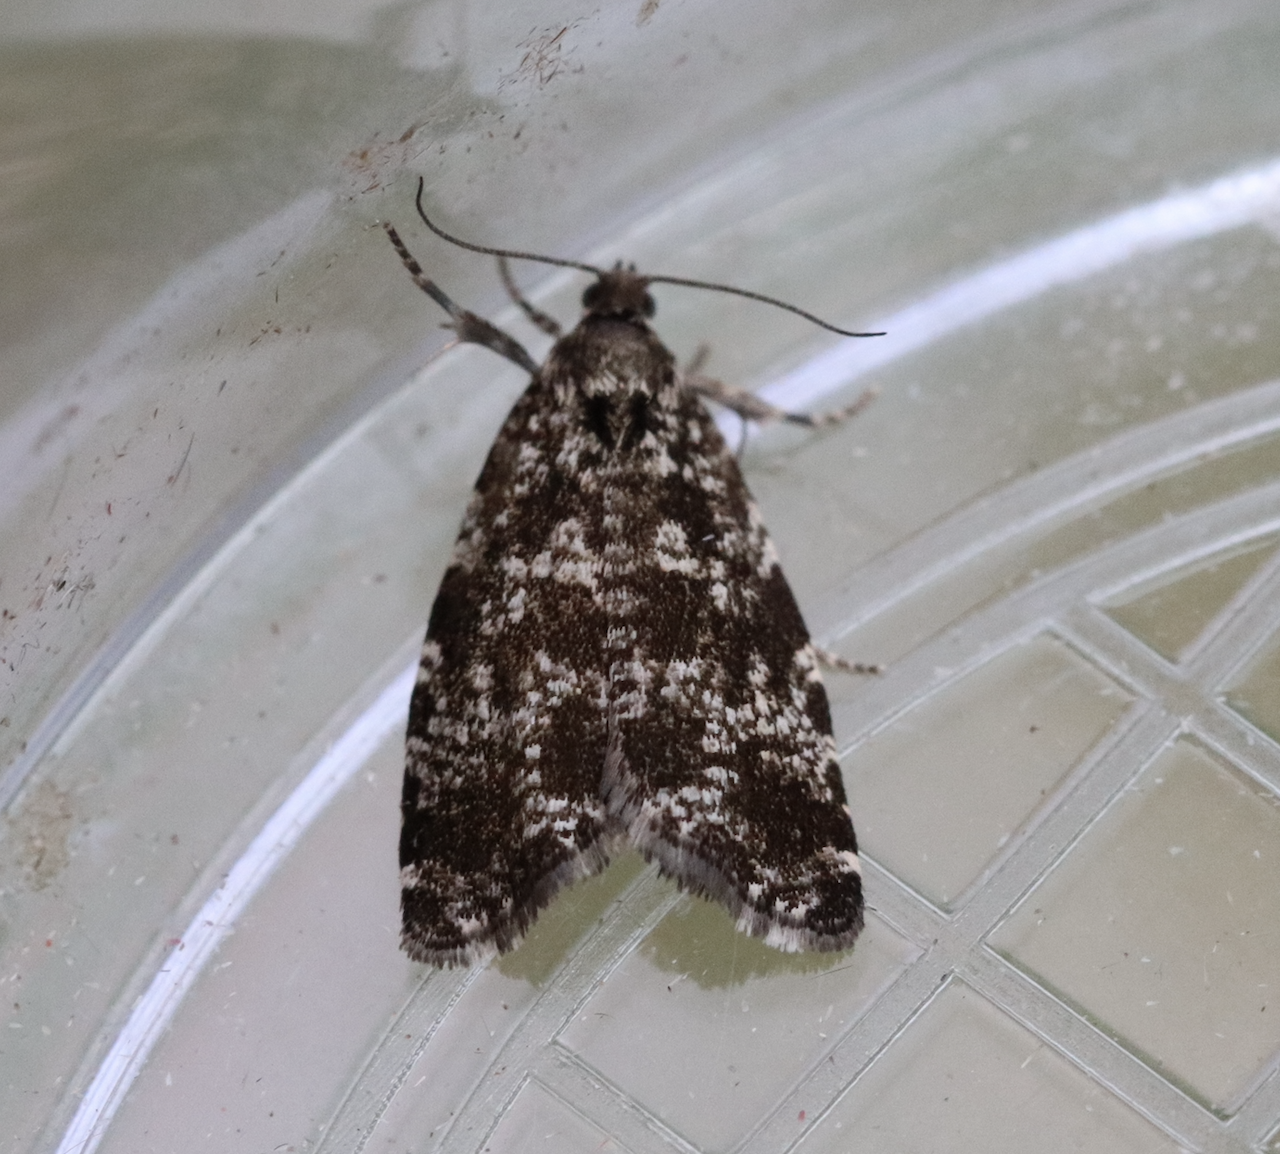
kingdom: Animalia
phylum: Arthropoda
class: Insecta
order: Lepidoptera
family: Tortricidae
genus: Pseudohermenias
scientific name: Pseudohermenias hercyniana
